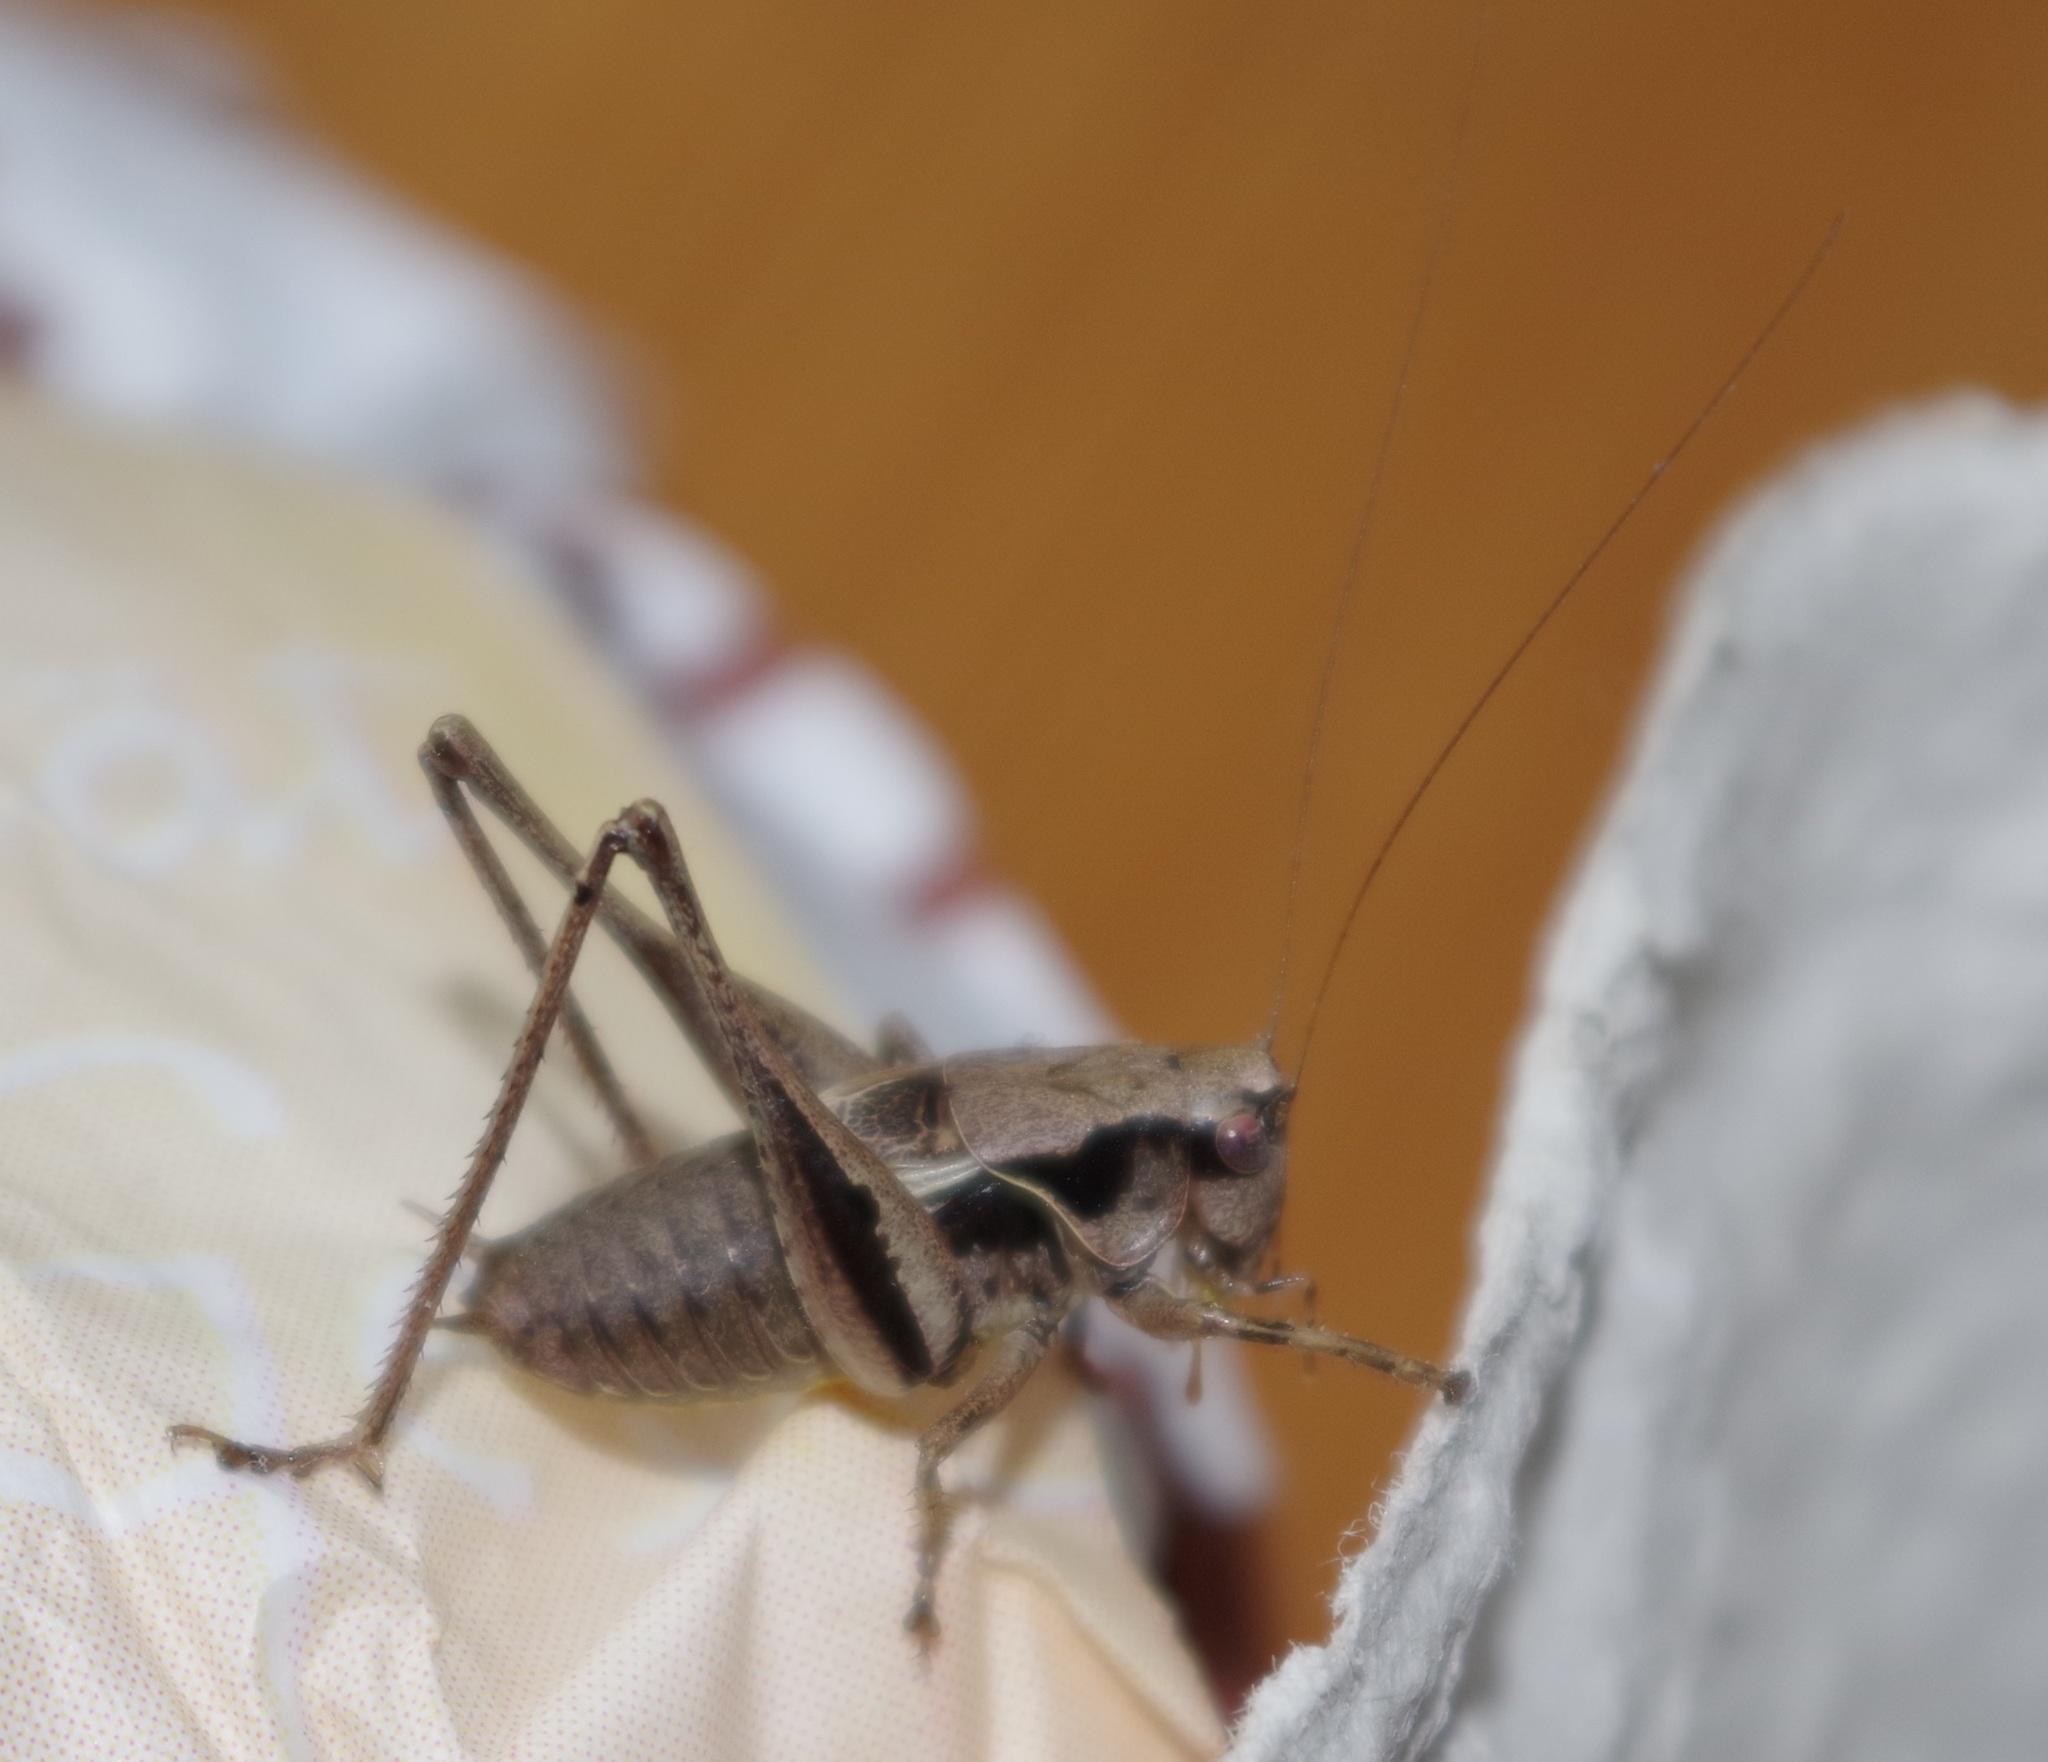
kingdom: Animalia
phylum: Arthropoda
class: Insecta
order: Orthoptera
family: Tettigoniidae
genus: Pholidoptera
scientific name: Pholidoptera griseoaptera
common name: Dark bush-cricket
